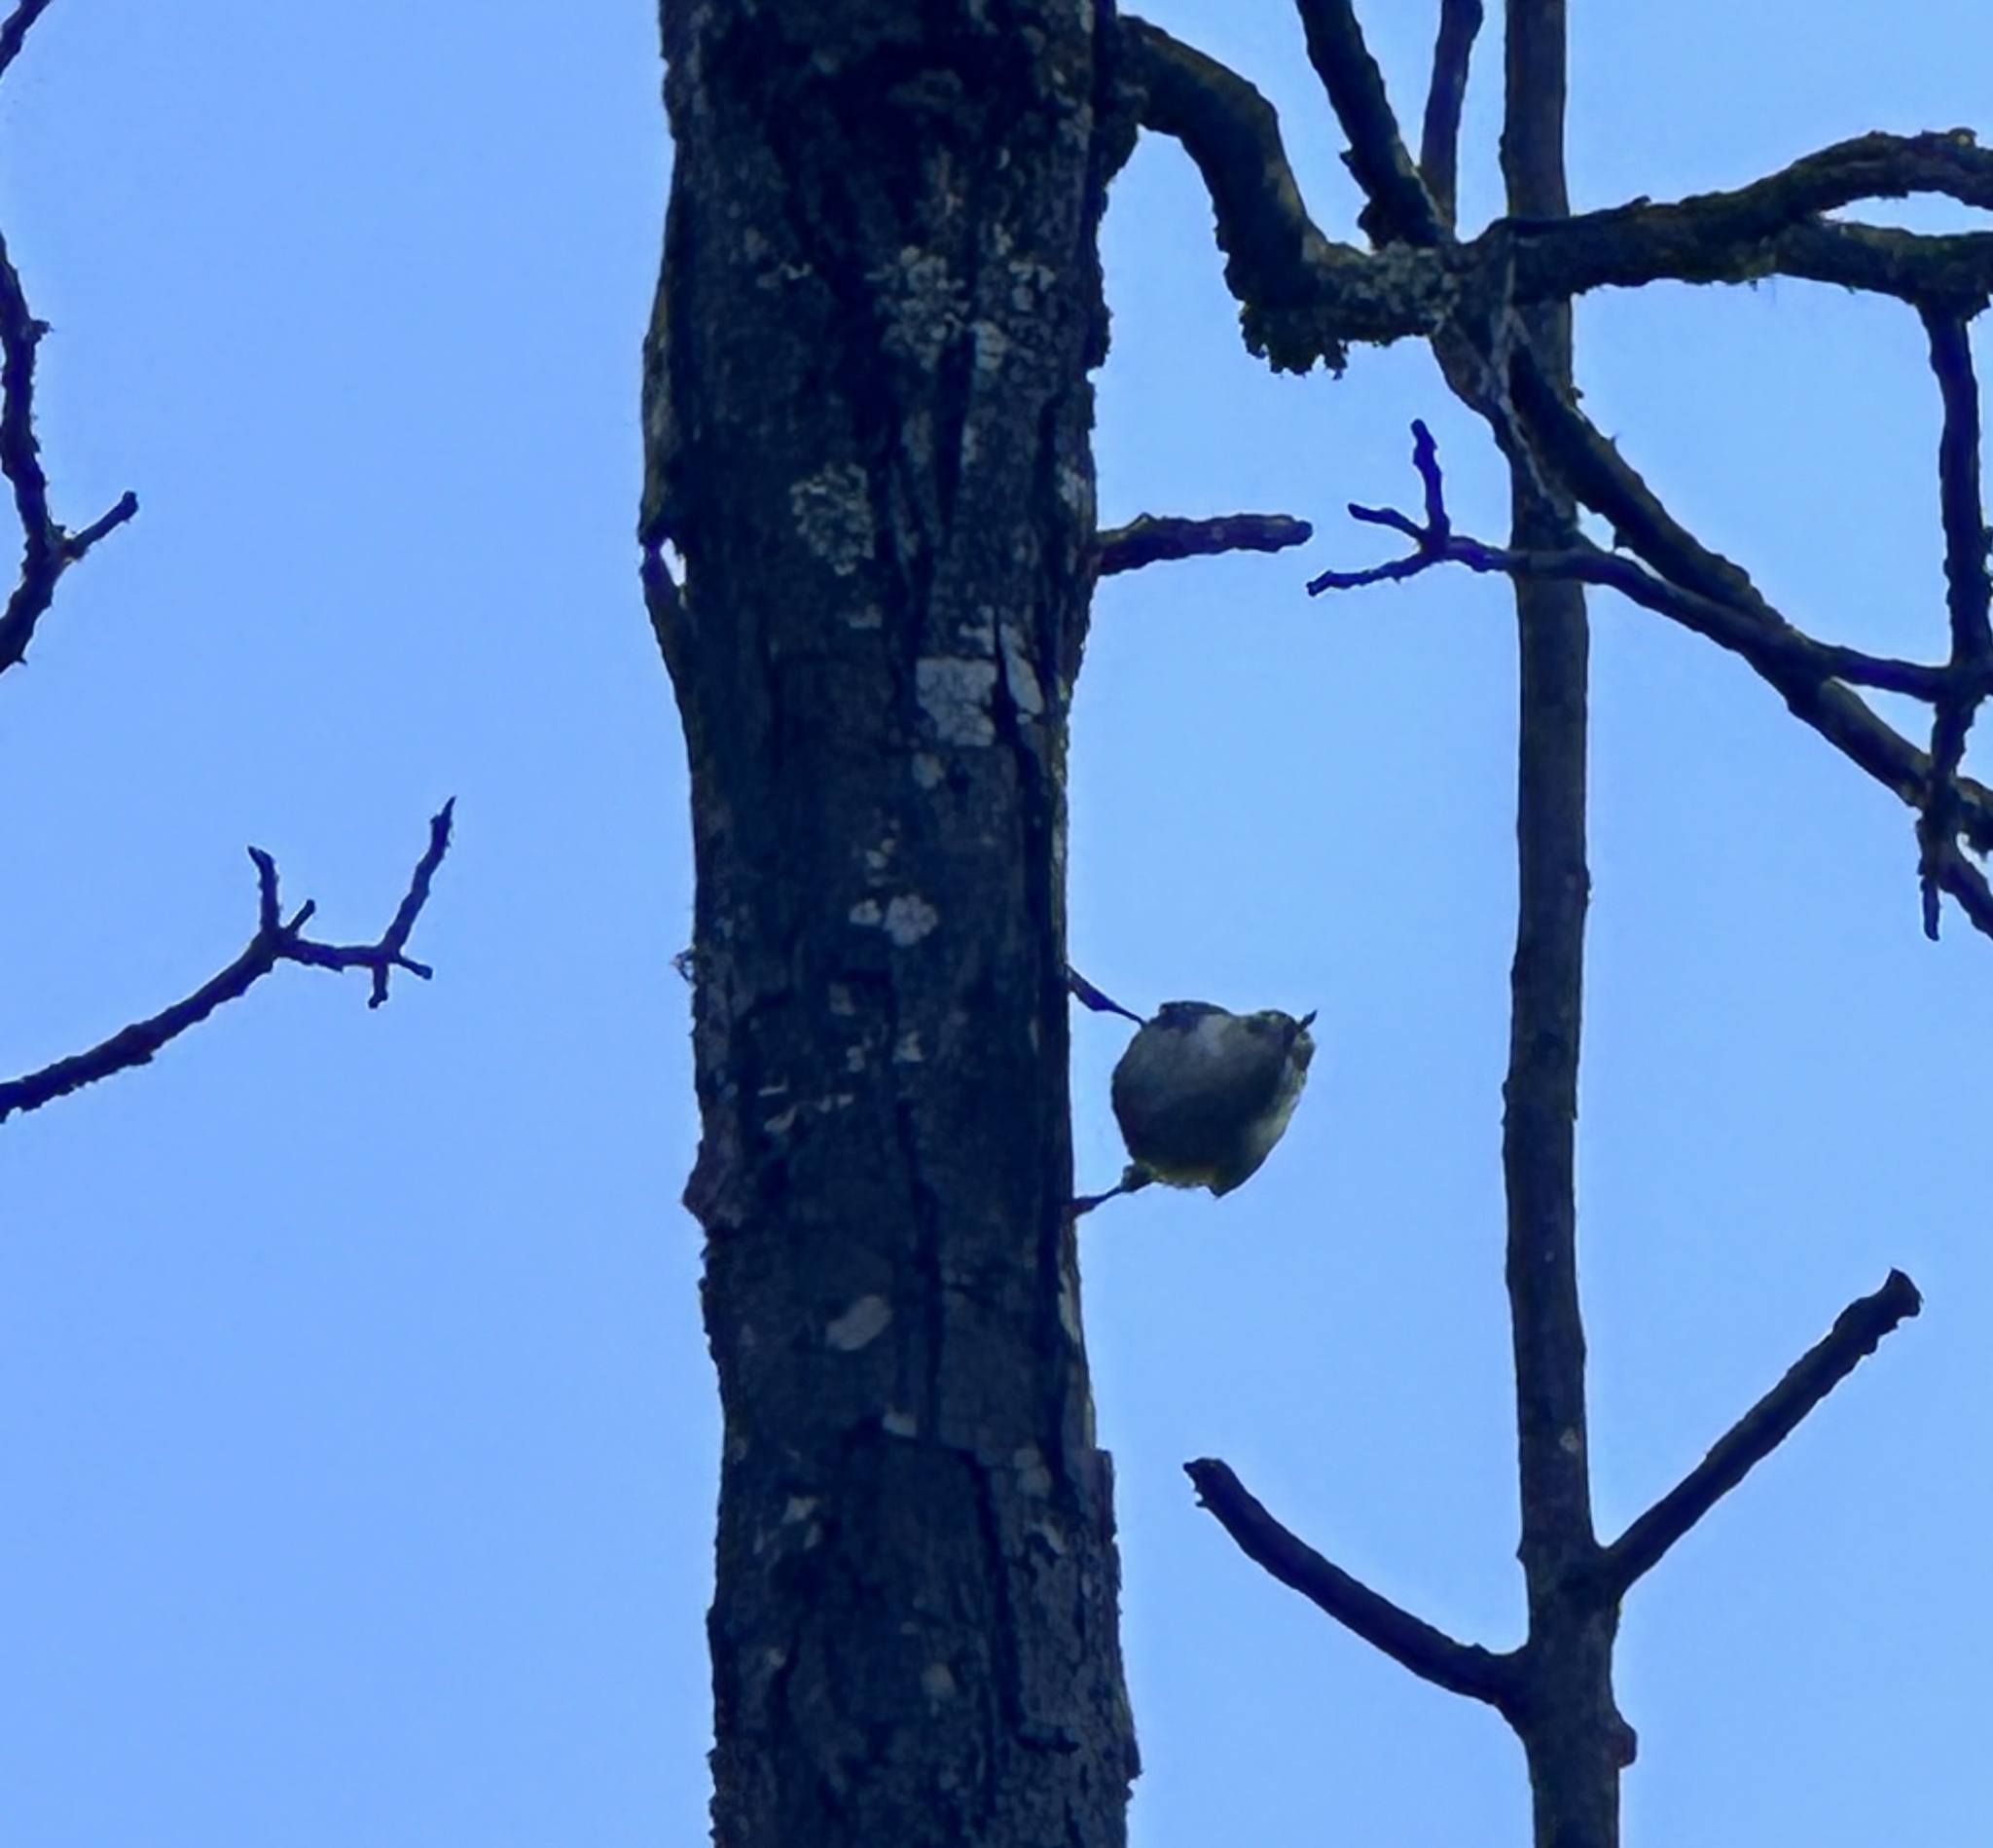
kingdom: Animalia
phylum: Chordata
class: Aves
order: Passeriformes
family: Sittidae
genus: Sitta
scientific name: Sitta carolinensis
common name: White-breasted nuthatch
